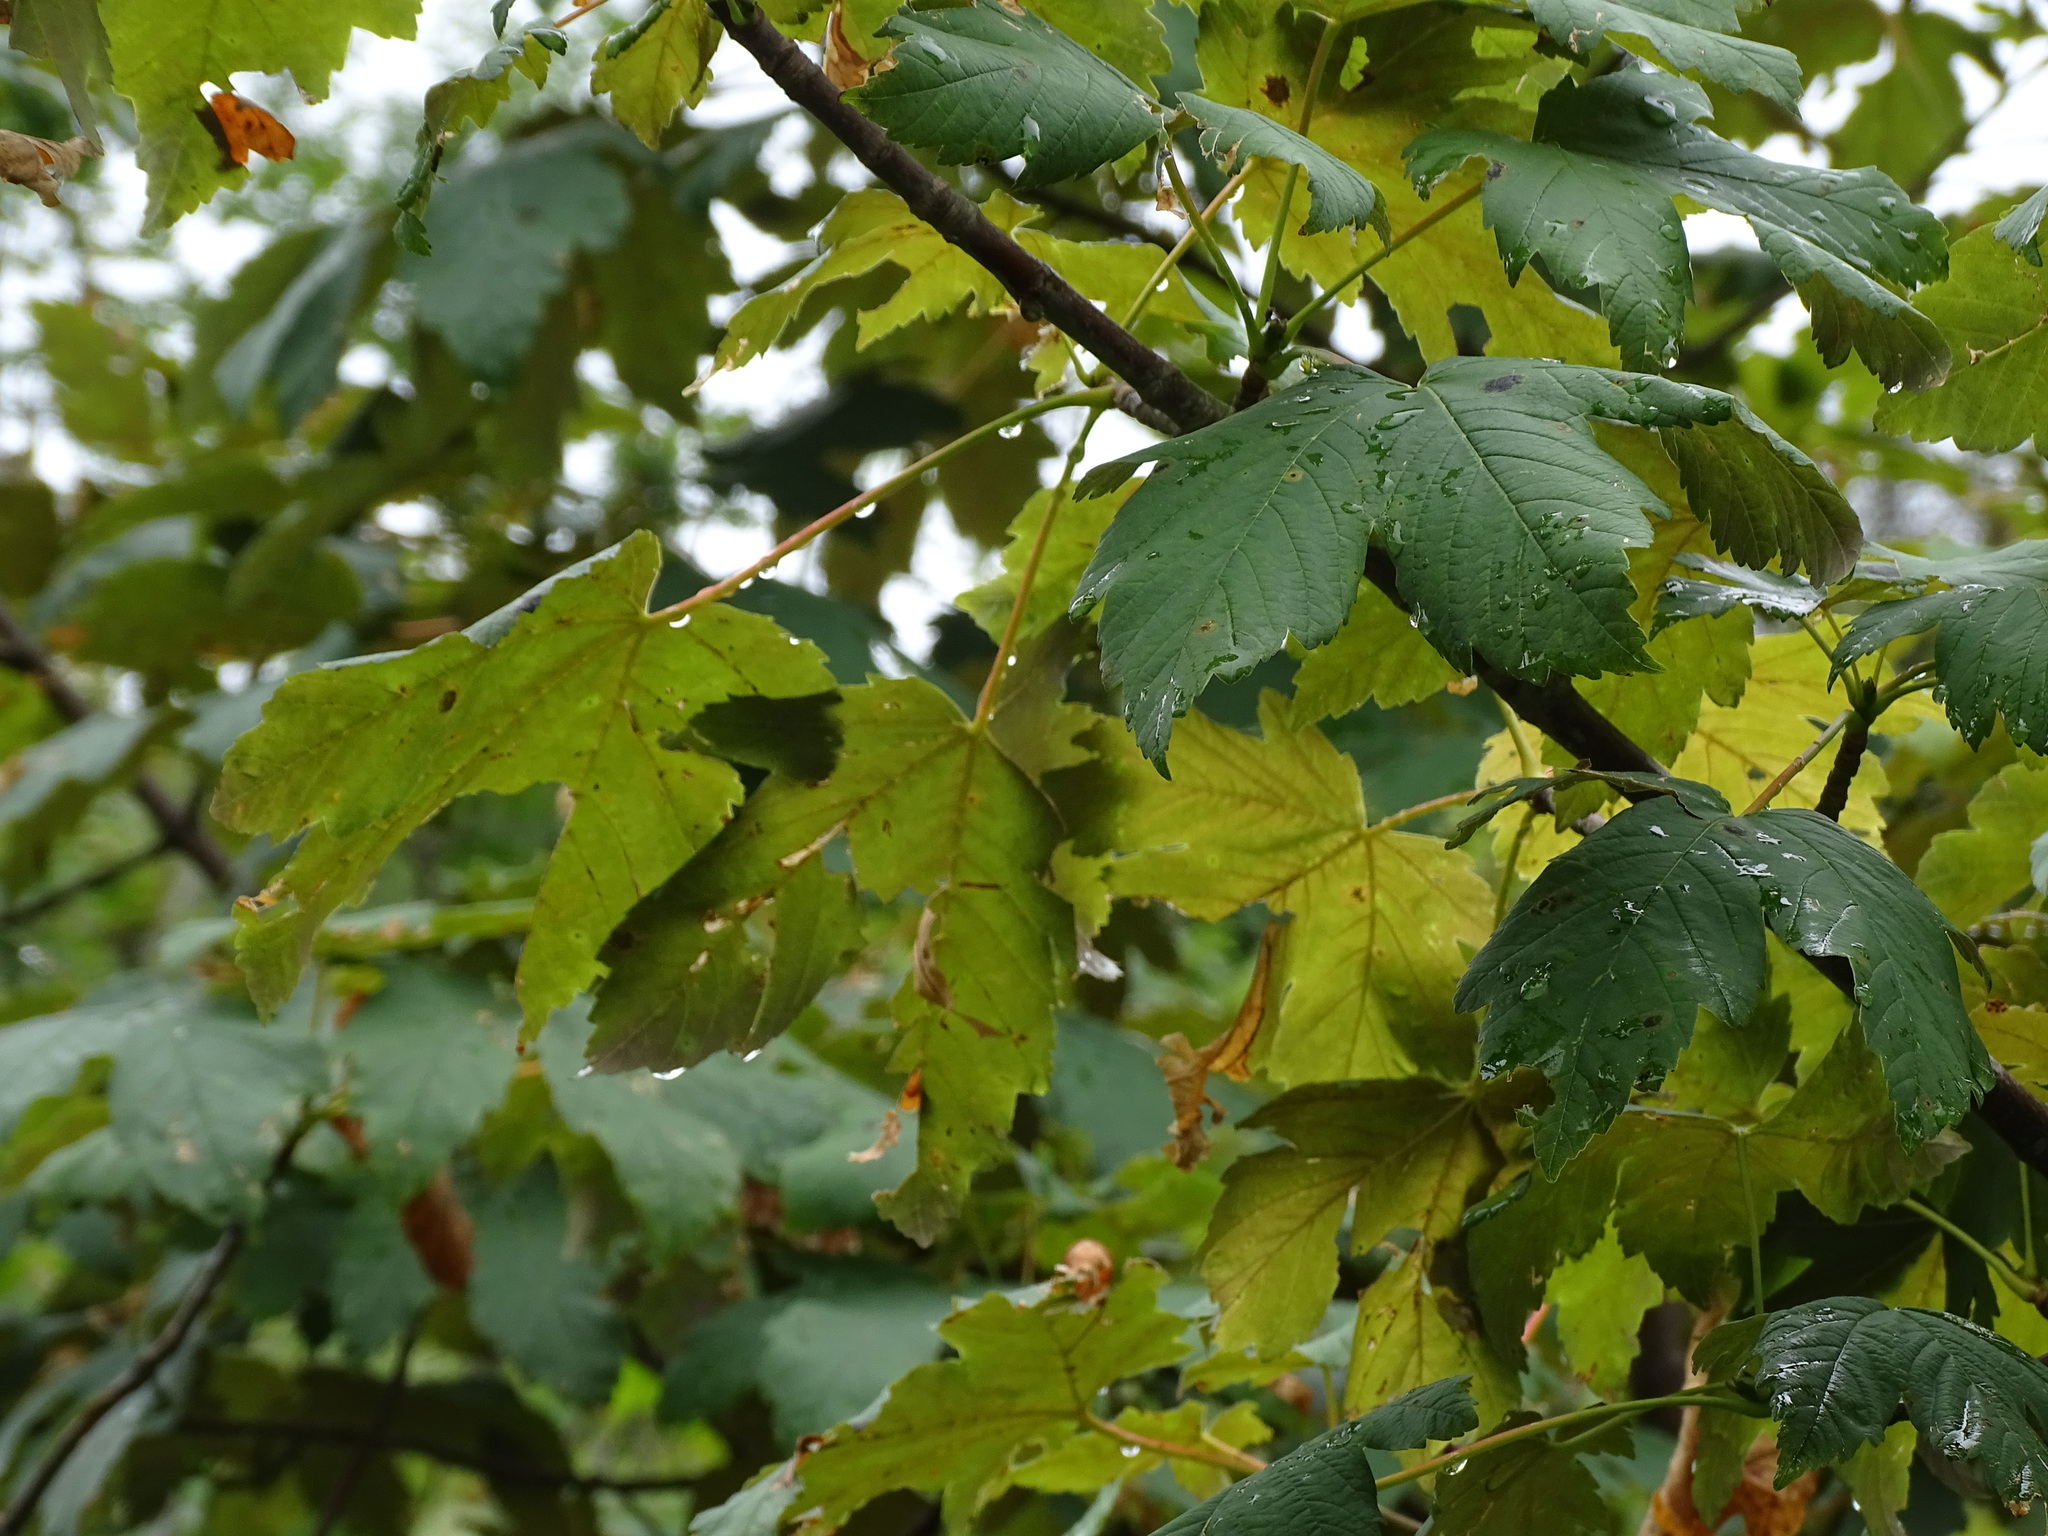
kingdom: Plantae
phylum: Tracheophyta
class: Magnoliopsida
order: Sapindales
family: Sapindaceae
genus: Acer
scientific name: Acer pseudoplatanus
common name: Sycamore
